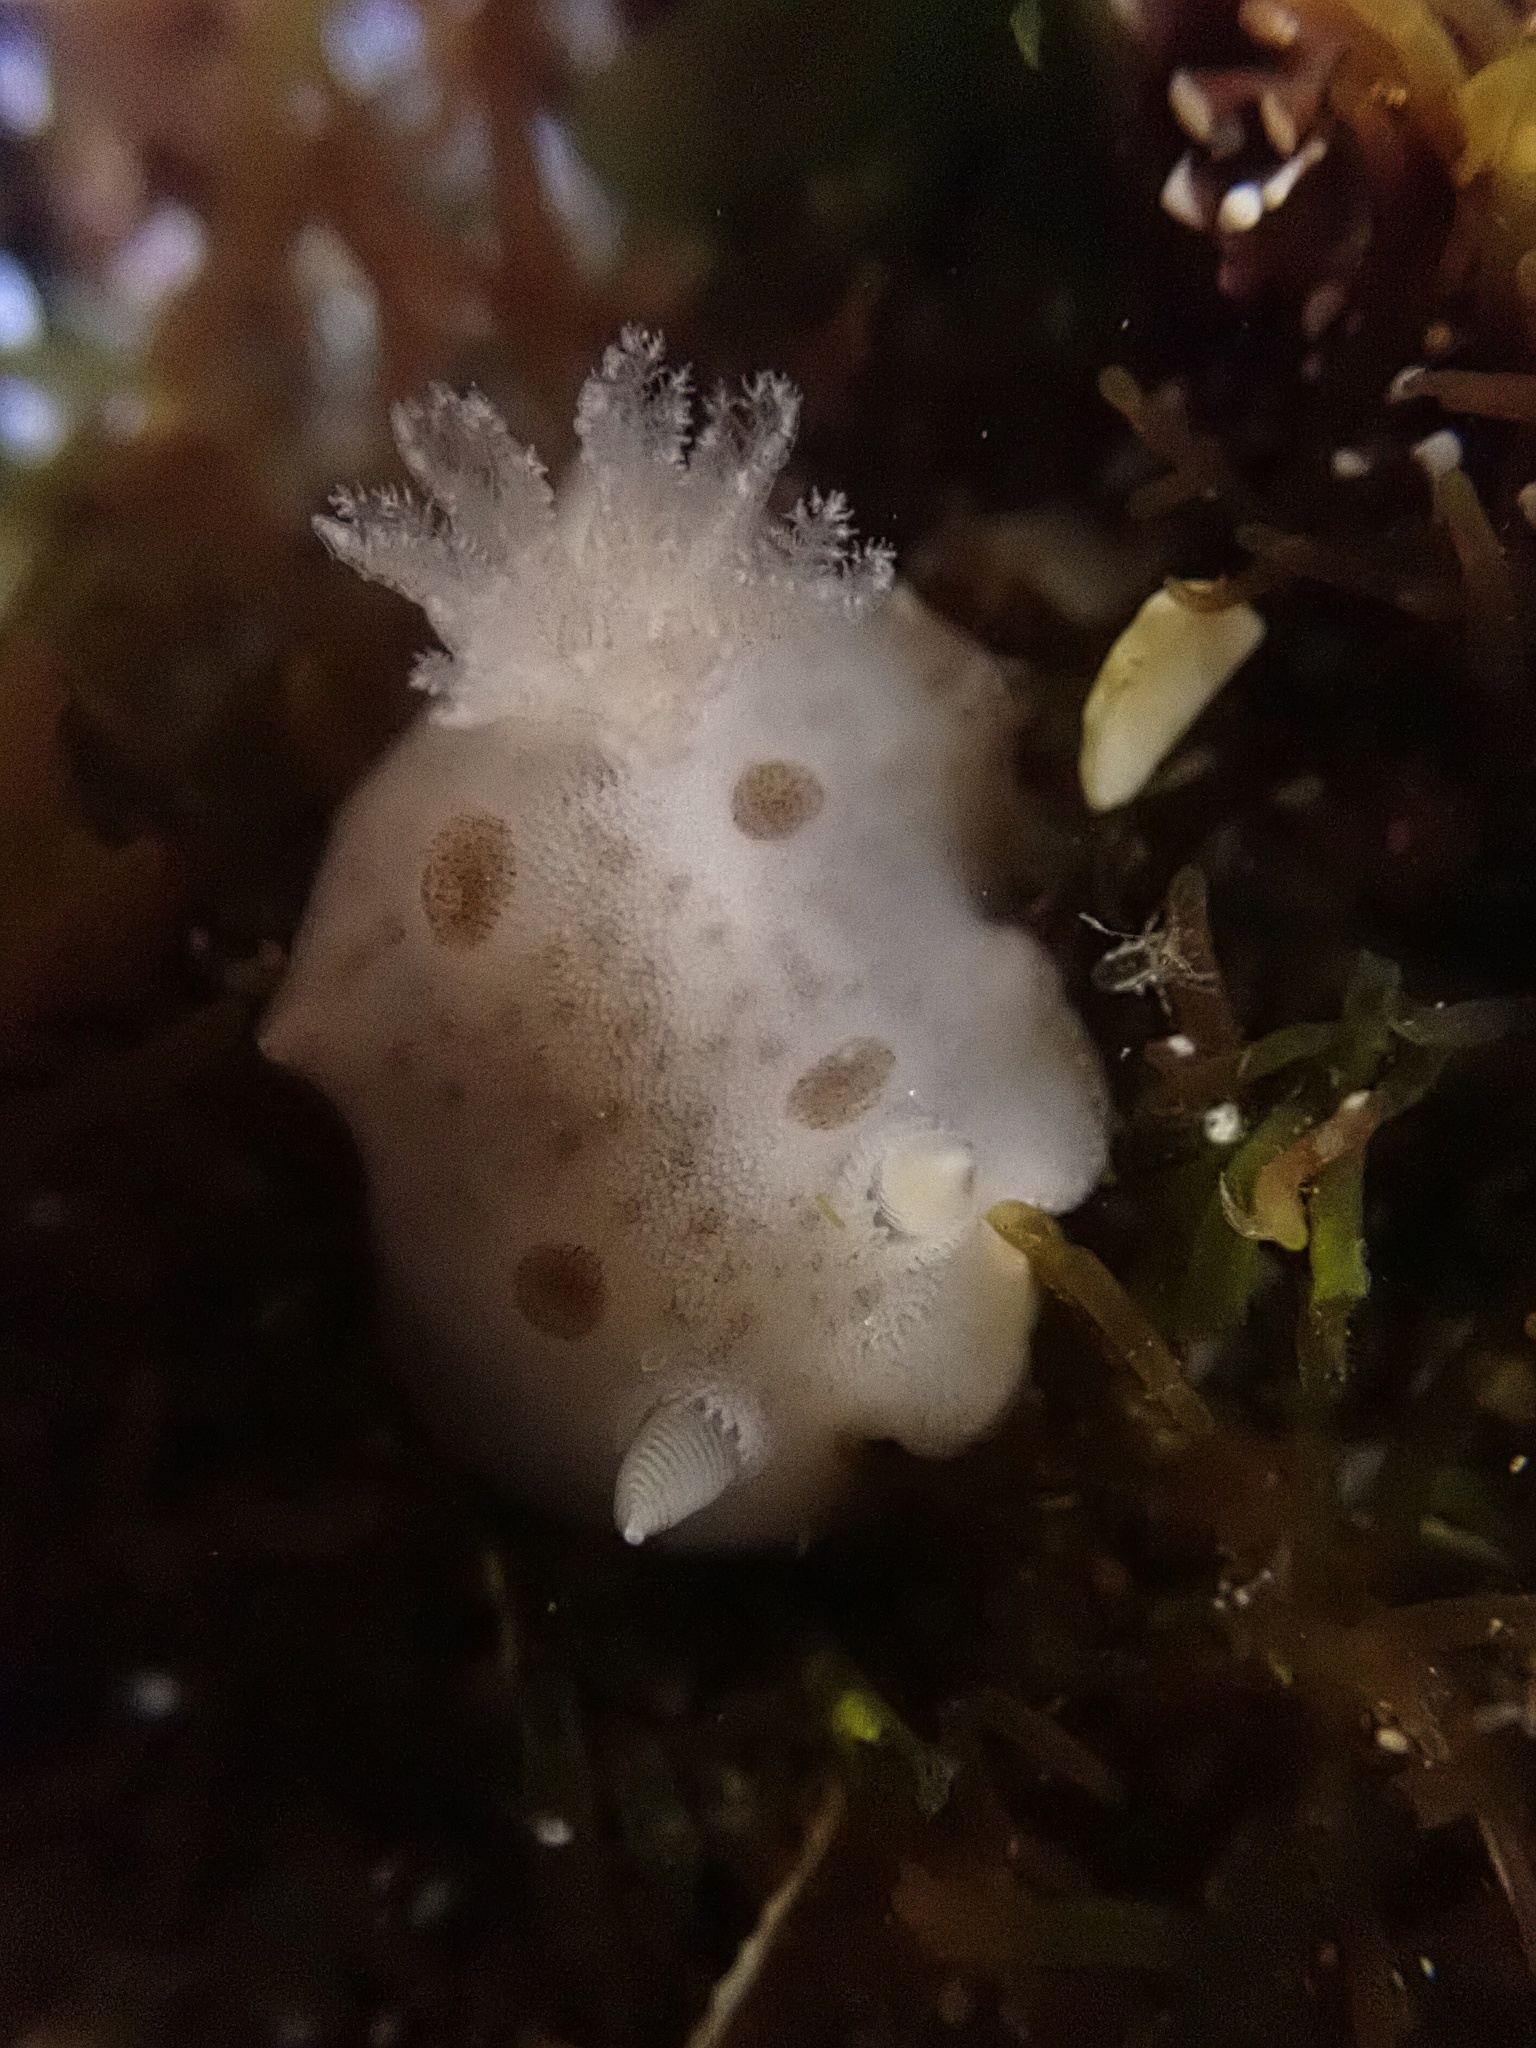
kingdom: Animalia
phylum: Mollusca
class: Gastropoda
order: Nudibranchia
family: Discodorididae
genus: Diaulula
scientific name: Diaulula sandiegensis
